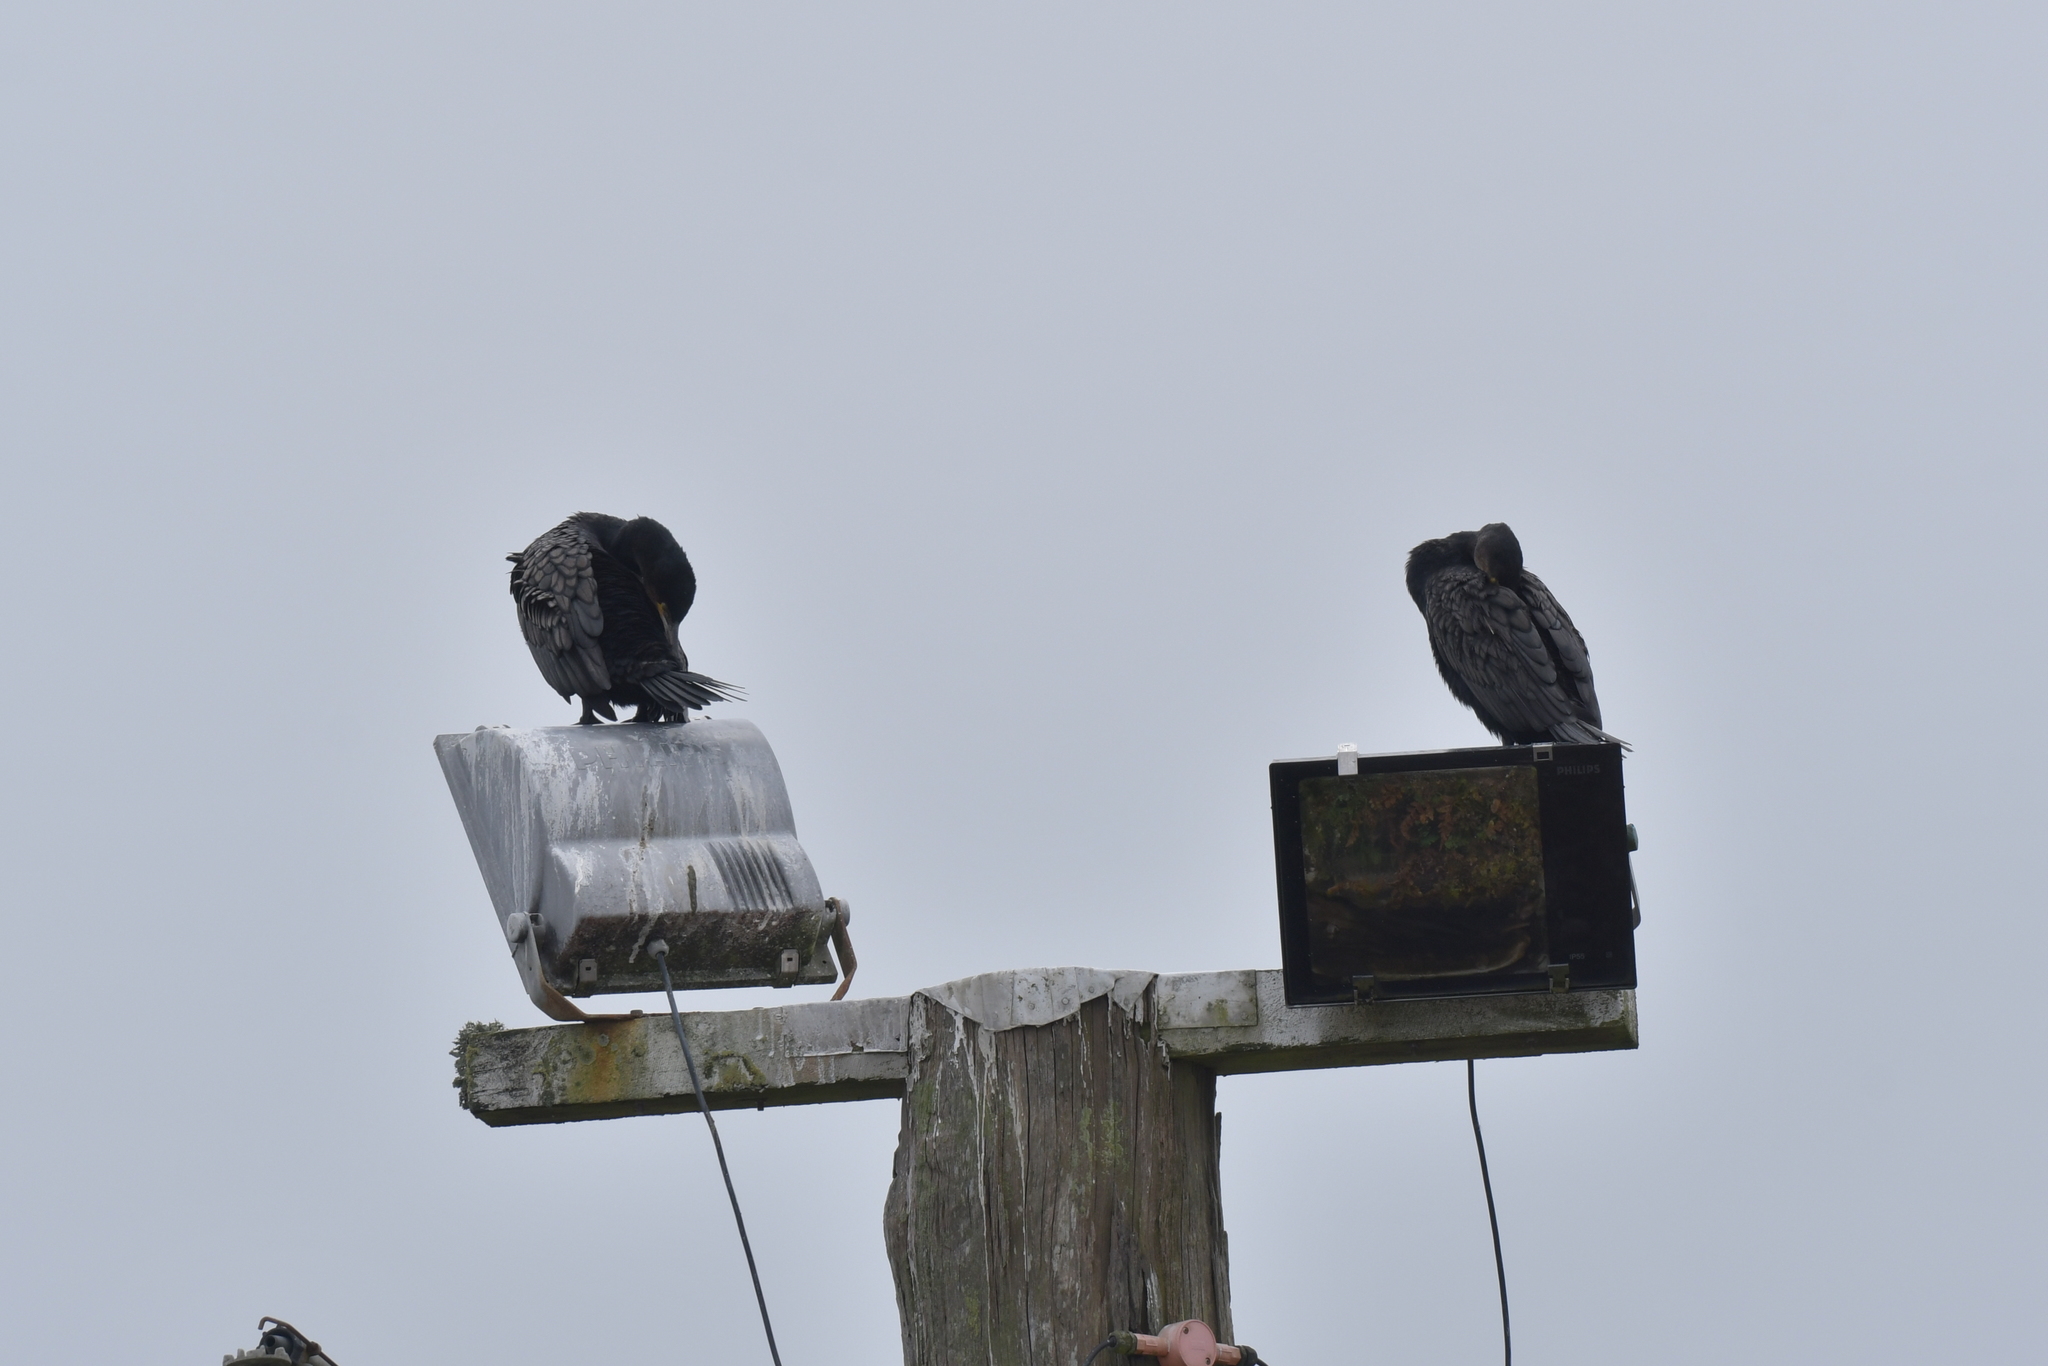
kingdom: Animalia
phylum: Chordata
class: Aves
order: Suliformes
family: Phalacrocoracidae
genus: Phalacrocorax
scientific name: Phalacrocorax carbo
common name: Great cormorant
